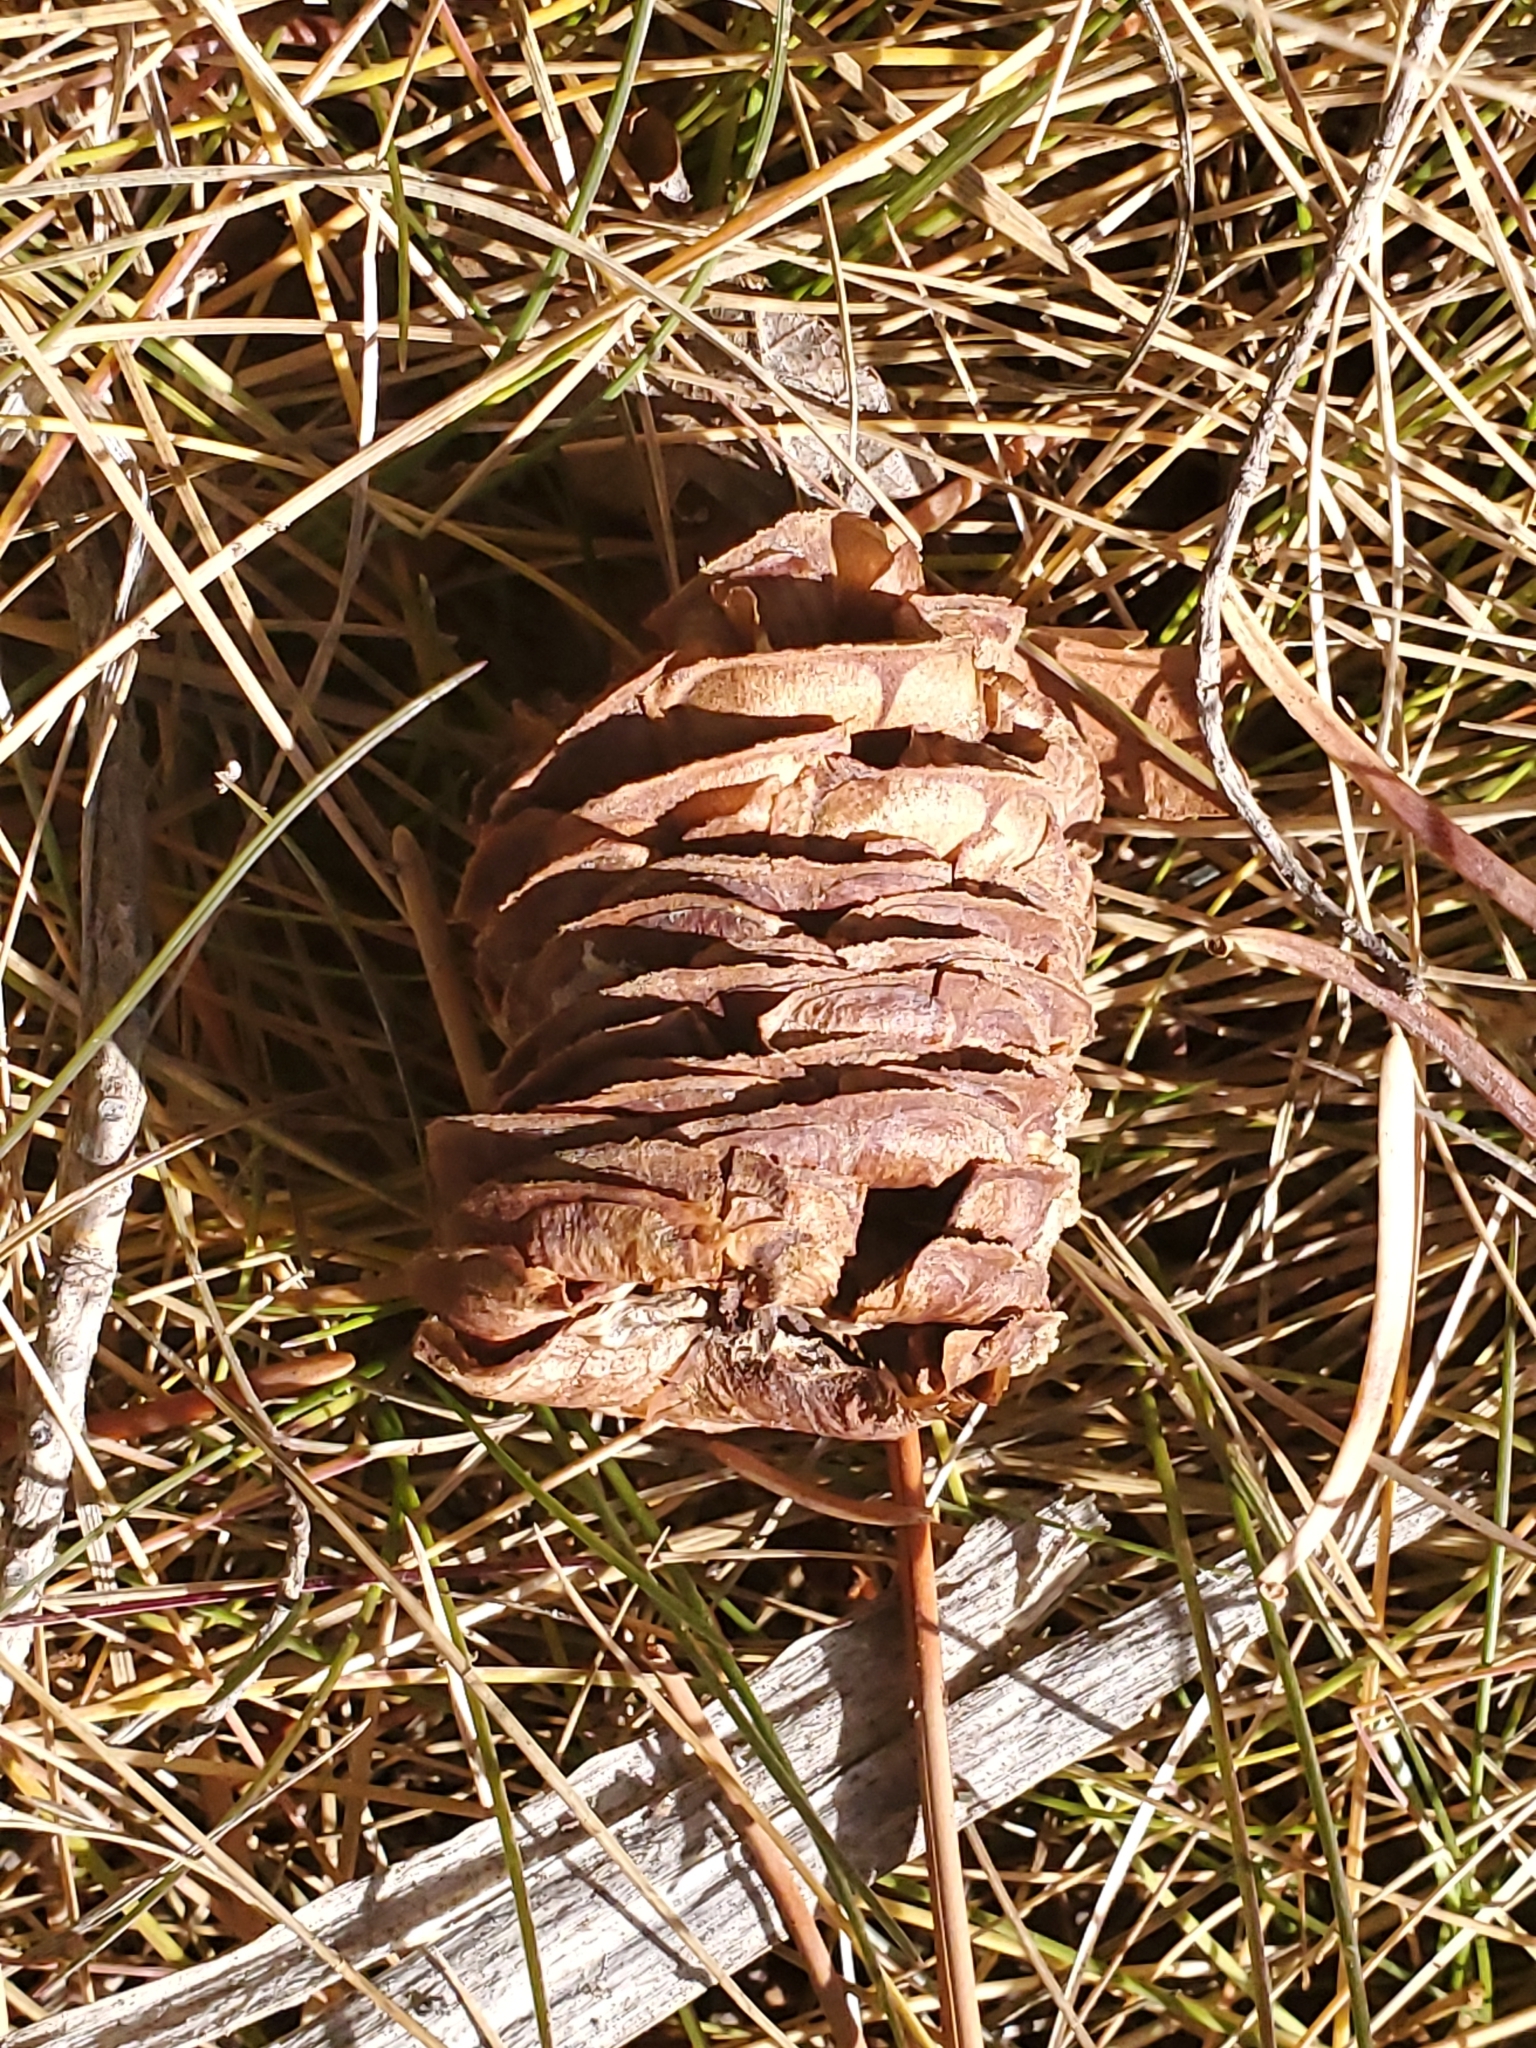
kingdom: Plantae
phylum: Tracheophyta
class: Pinopsida
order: Pinales
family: Pinaceae
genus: Abies
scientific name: Abies concolor
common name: Colorado fir
